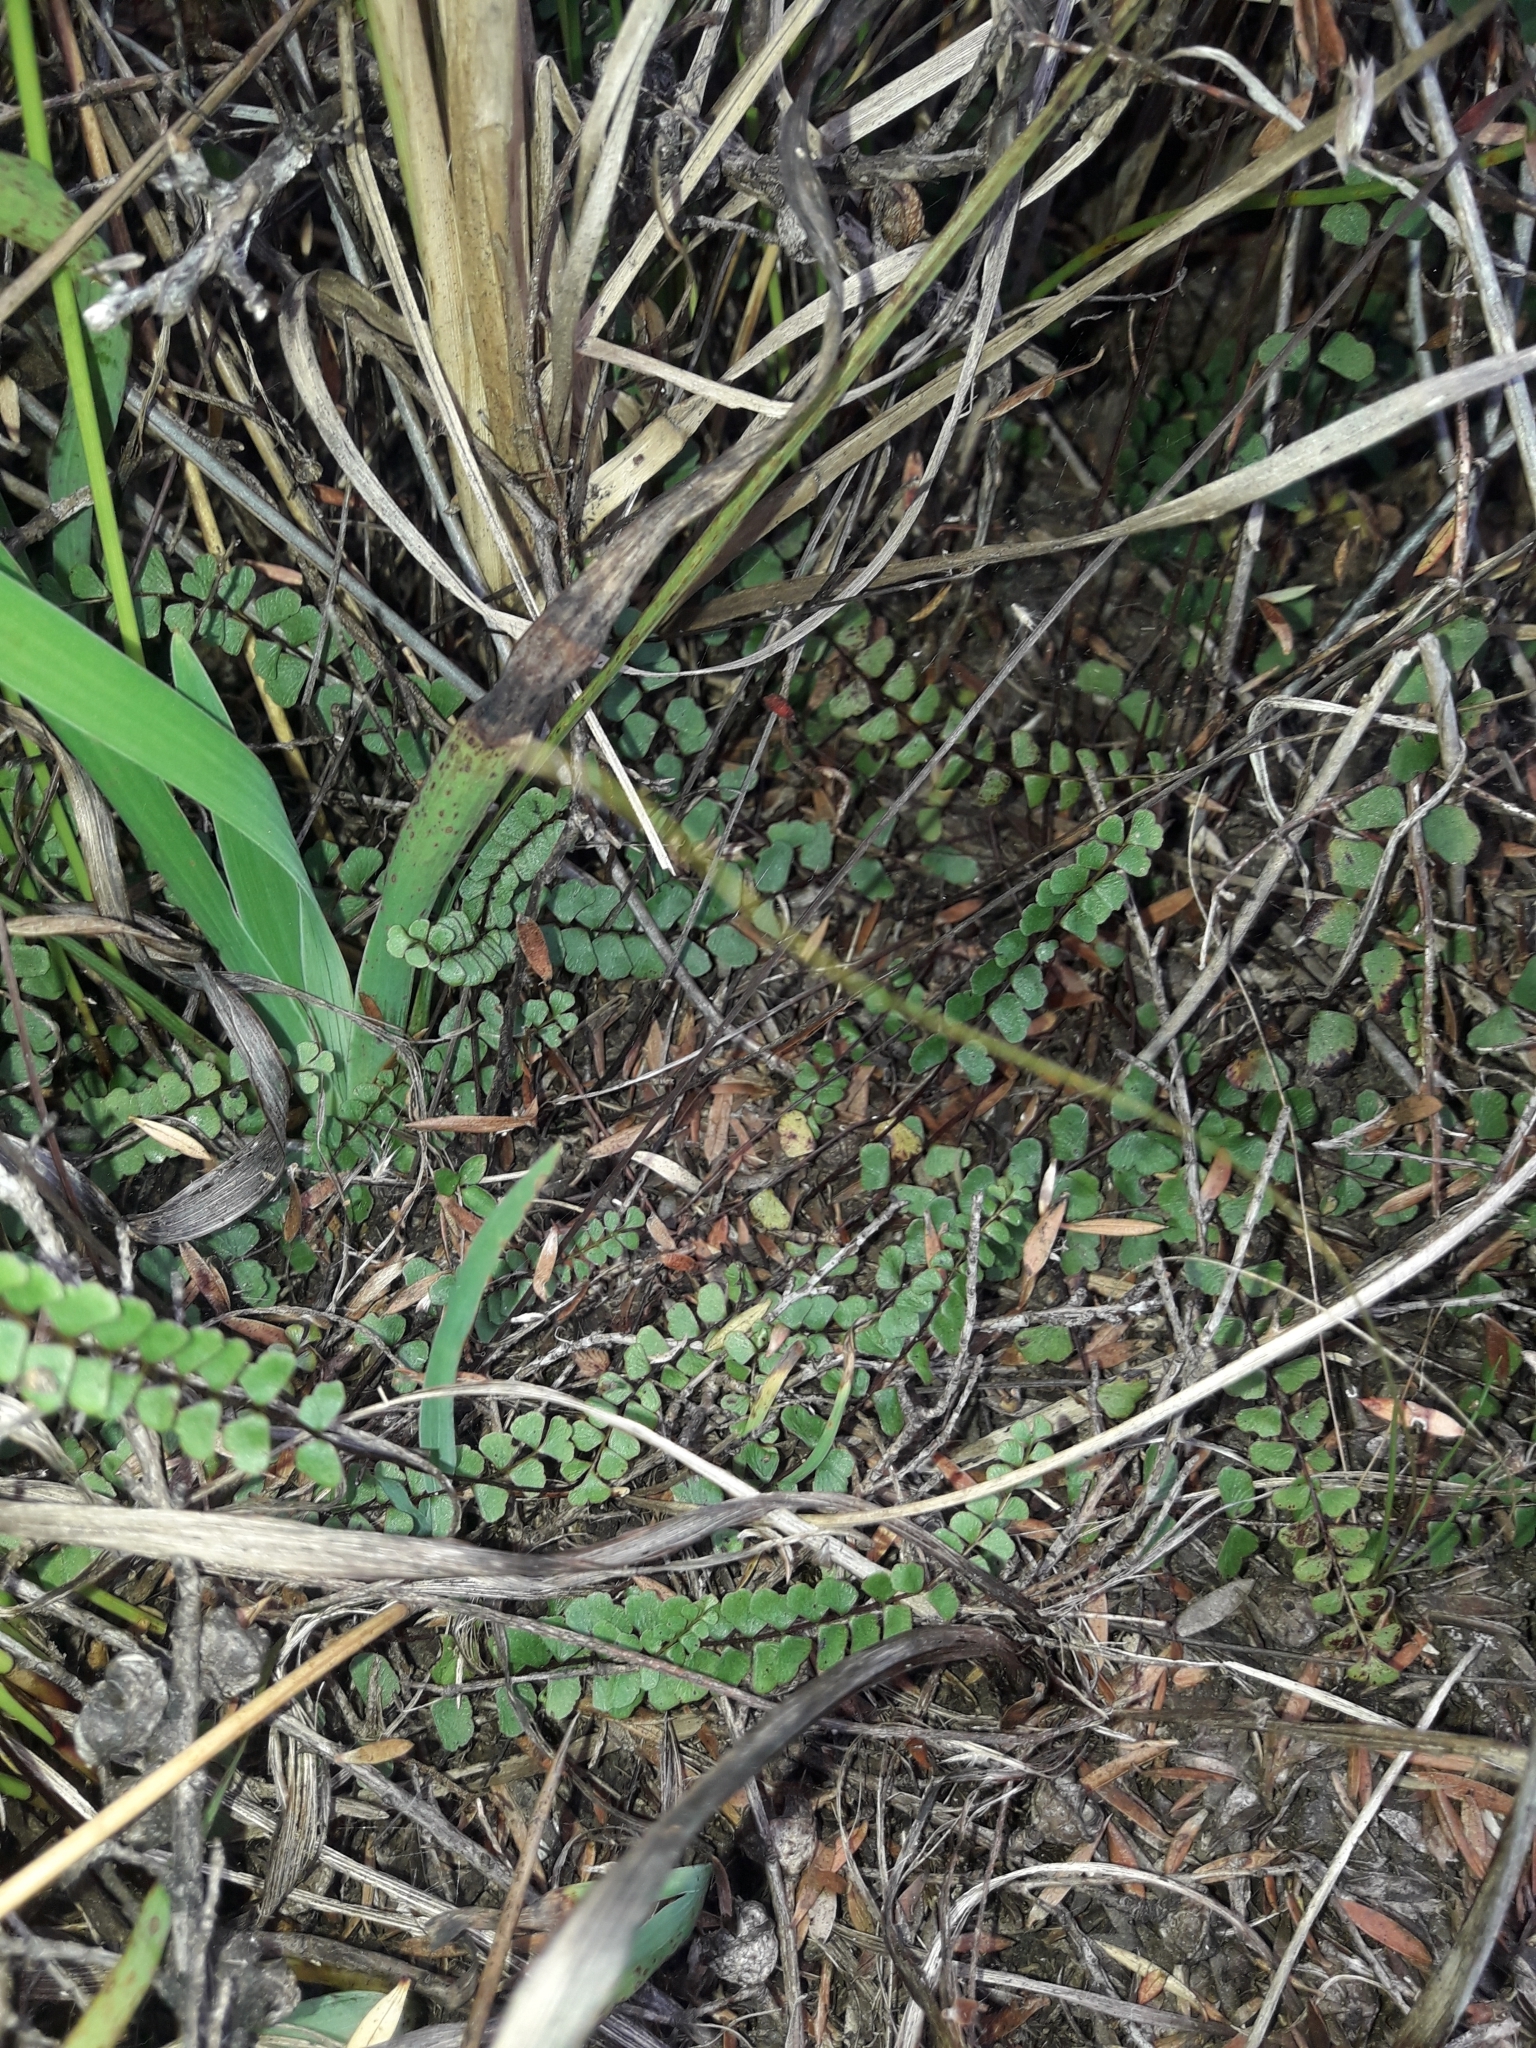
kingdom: Plantae
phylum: Tracheophyta
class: Polypodiopsida
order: Polypodiales
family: Lindsaeaceae
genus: Lindsaea
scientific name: Lindsaea linearis
